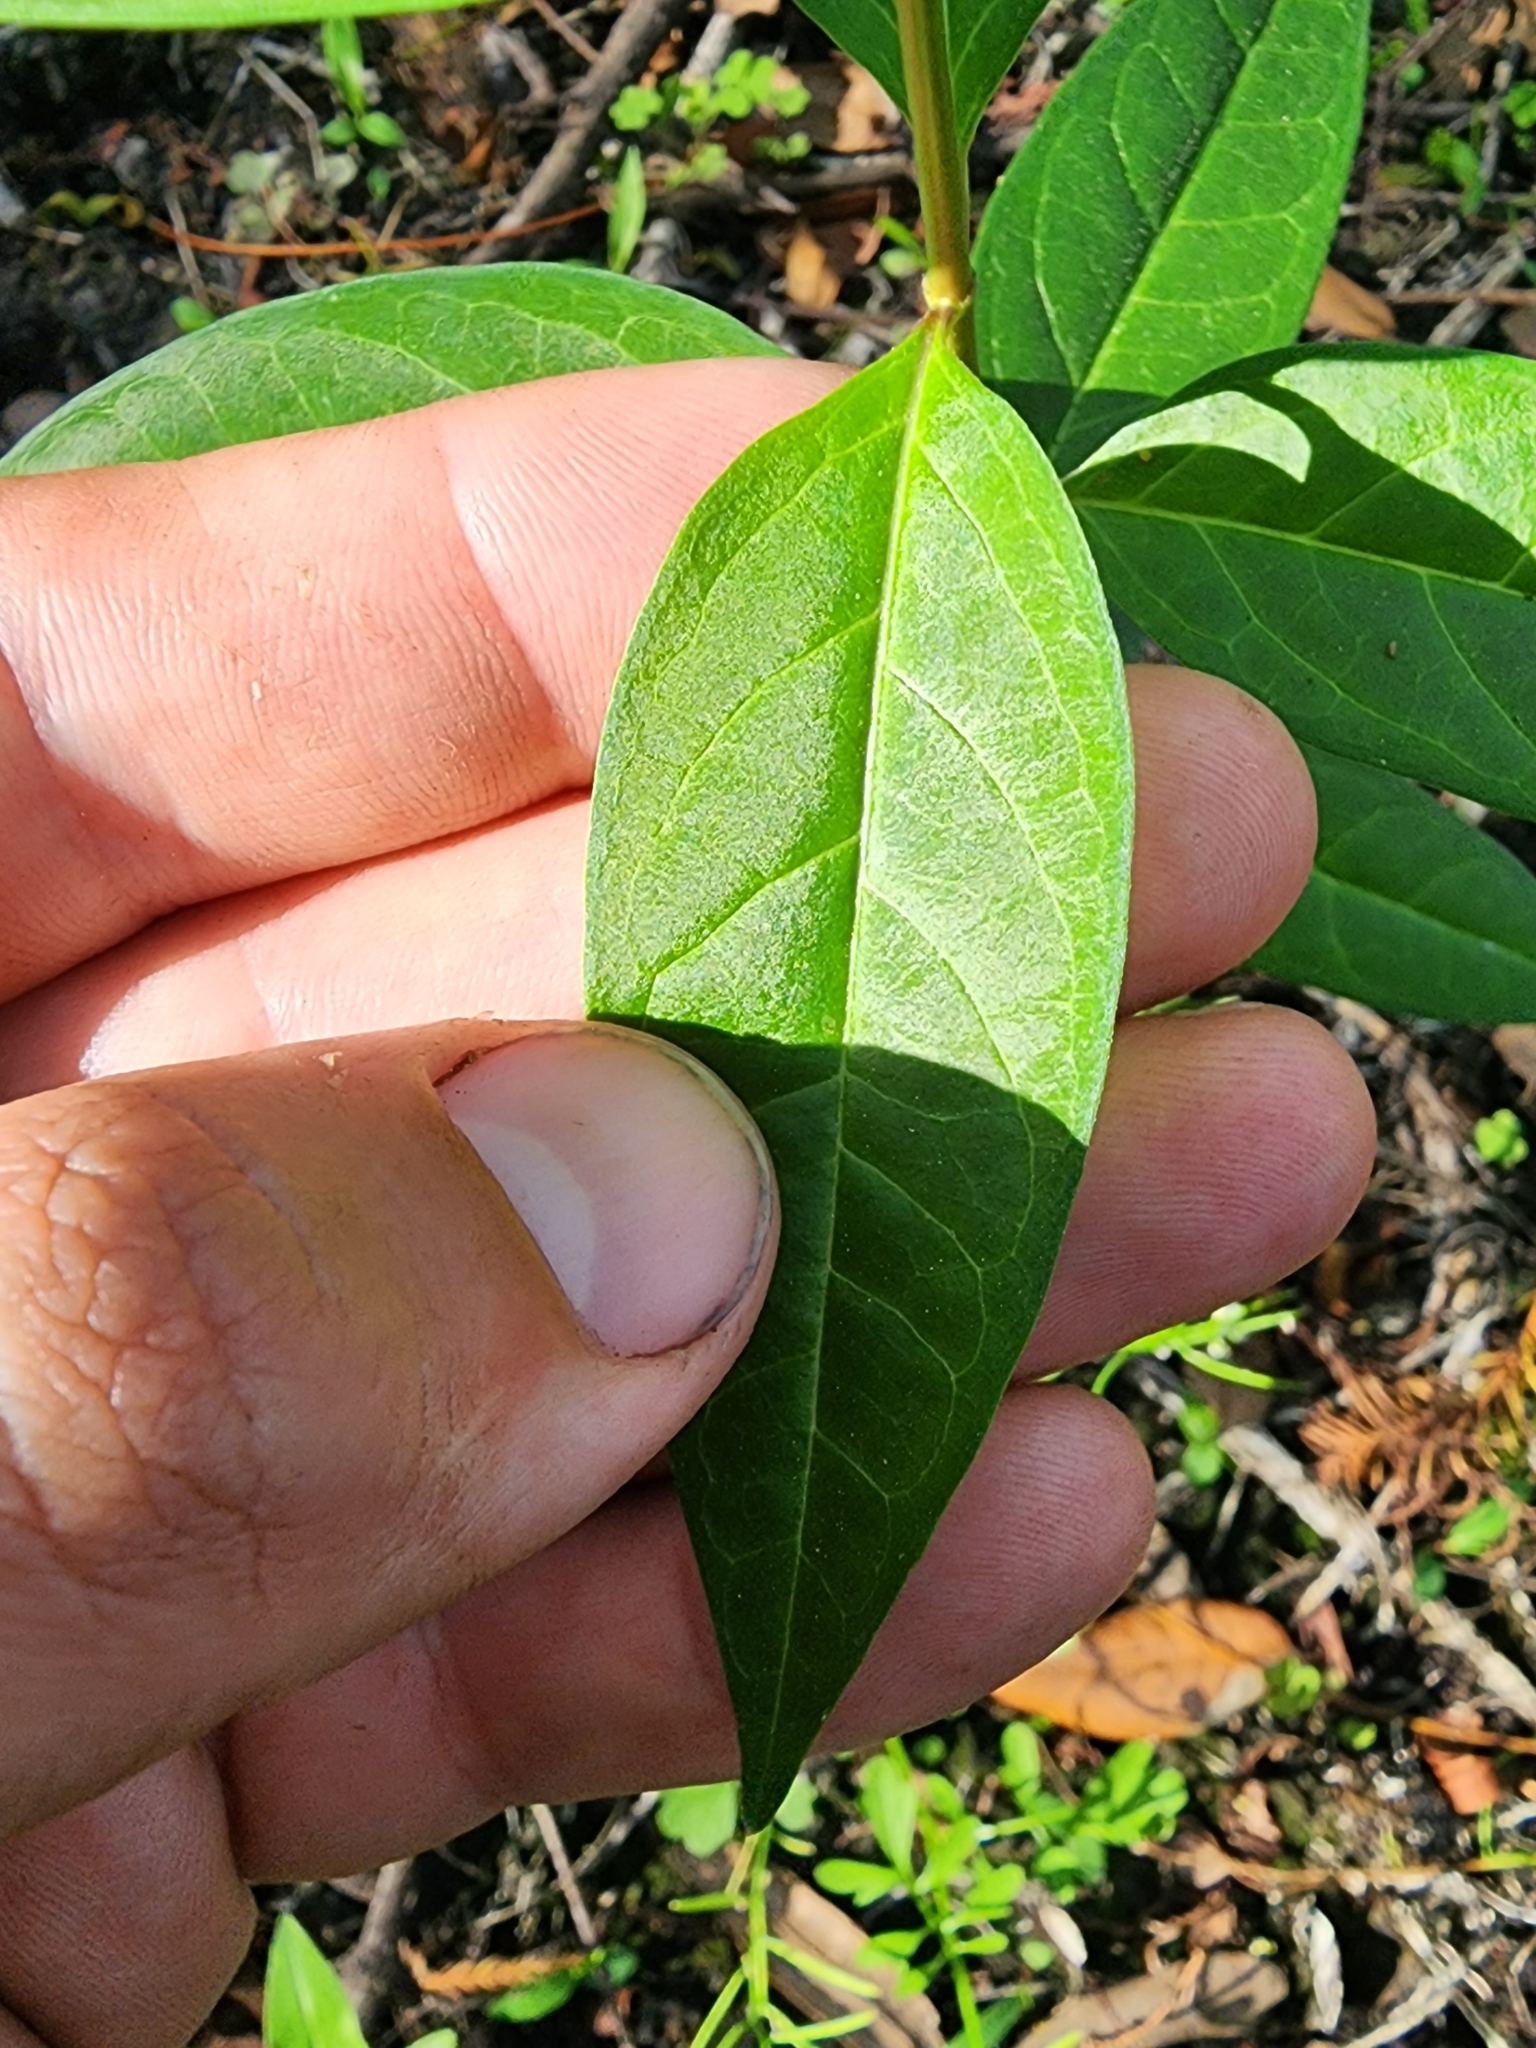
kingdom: Plantae
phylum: Tracheophyta
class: Magnoliopsida
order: Gentianales
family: Apocynaceae
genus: Asclepias
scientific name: Asclepias perennis
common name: Smooth-seed milkweed
